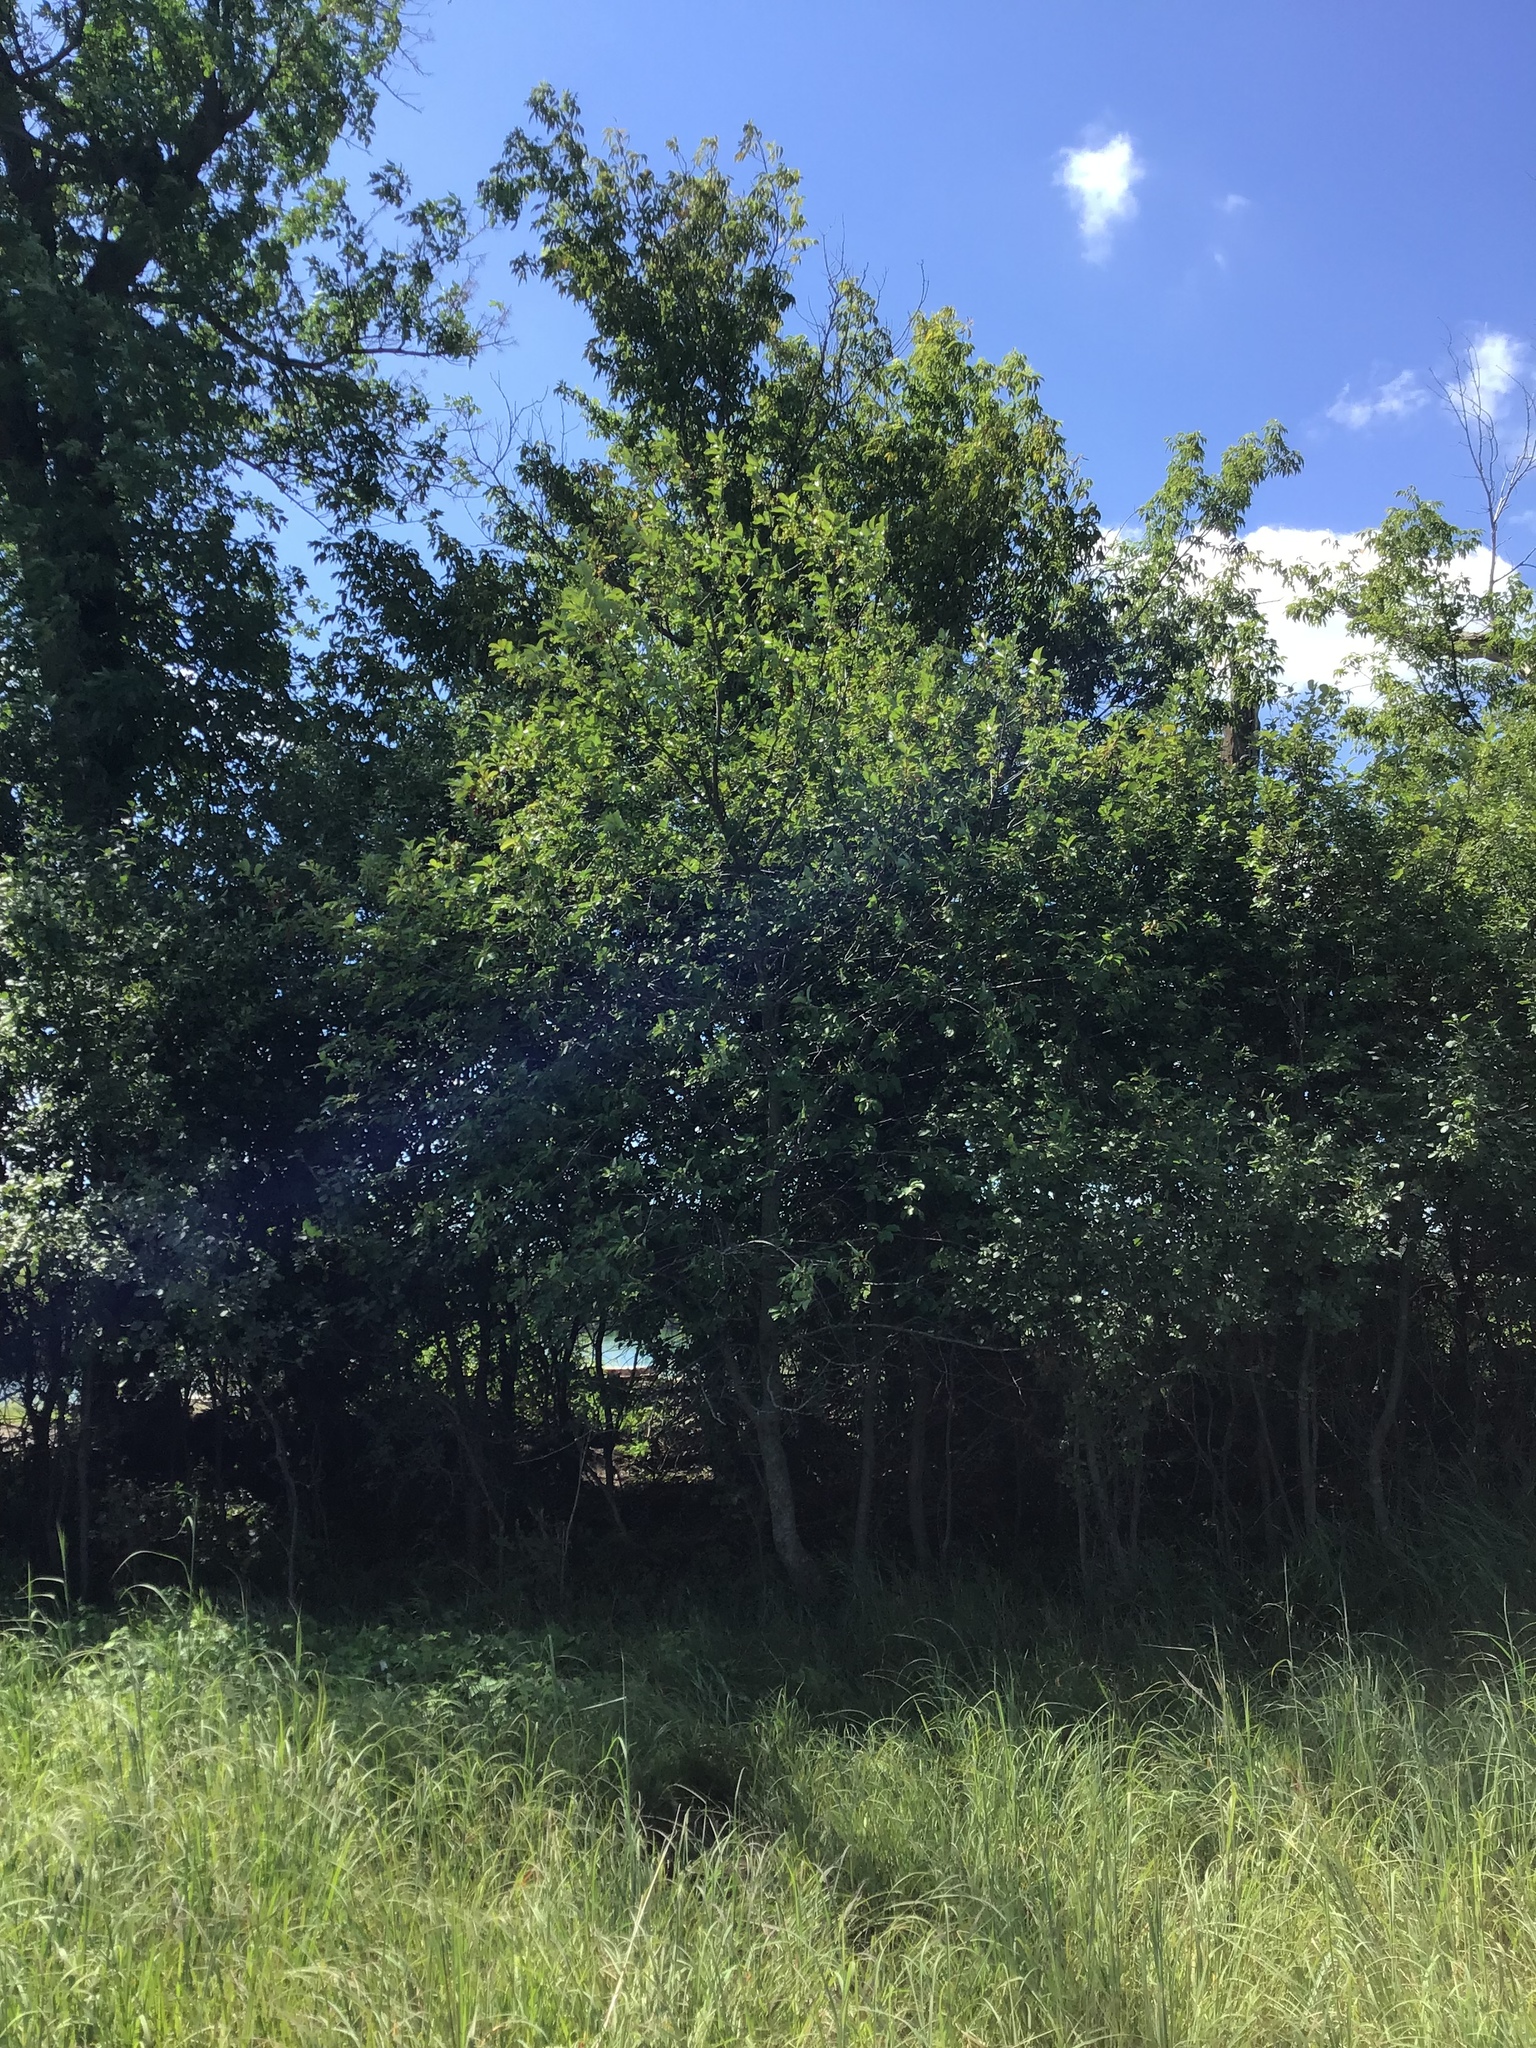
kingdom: Plantae
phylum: Tracheophyta
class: Magnoliopsida
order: Rosales
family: Rosaceae
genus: Prunus
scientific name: Prunus virginiana
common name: Chokecherry
